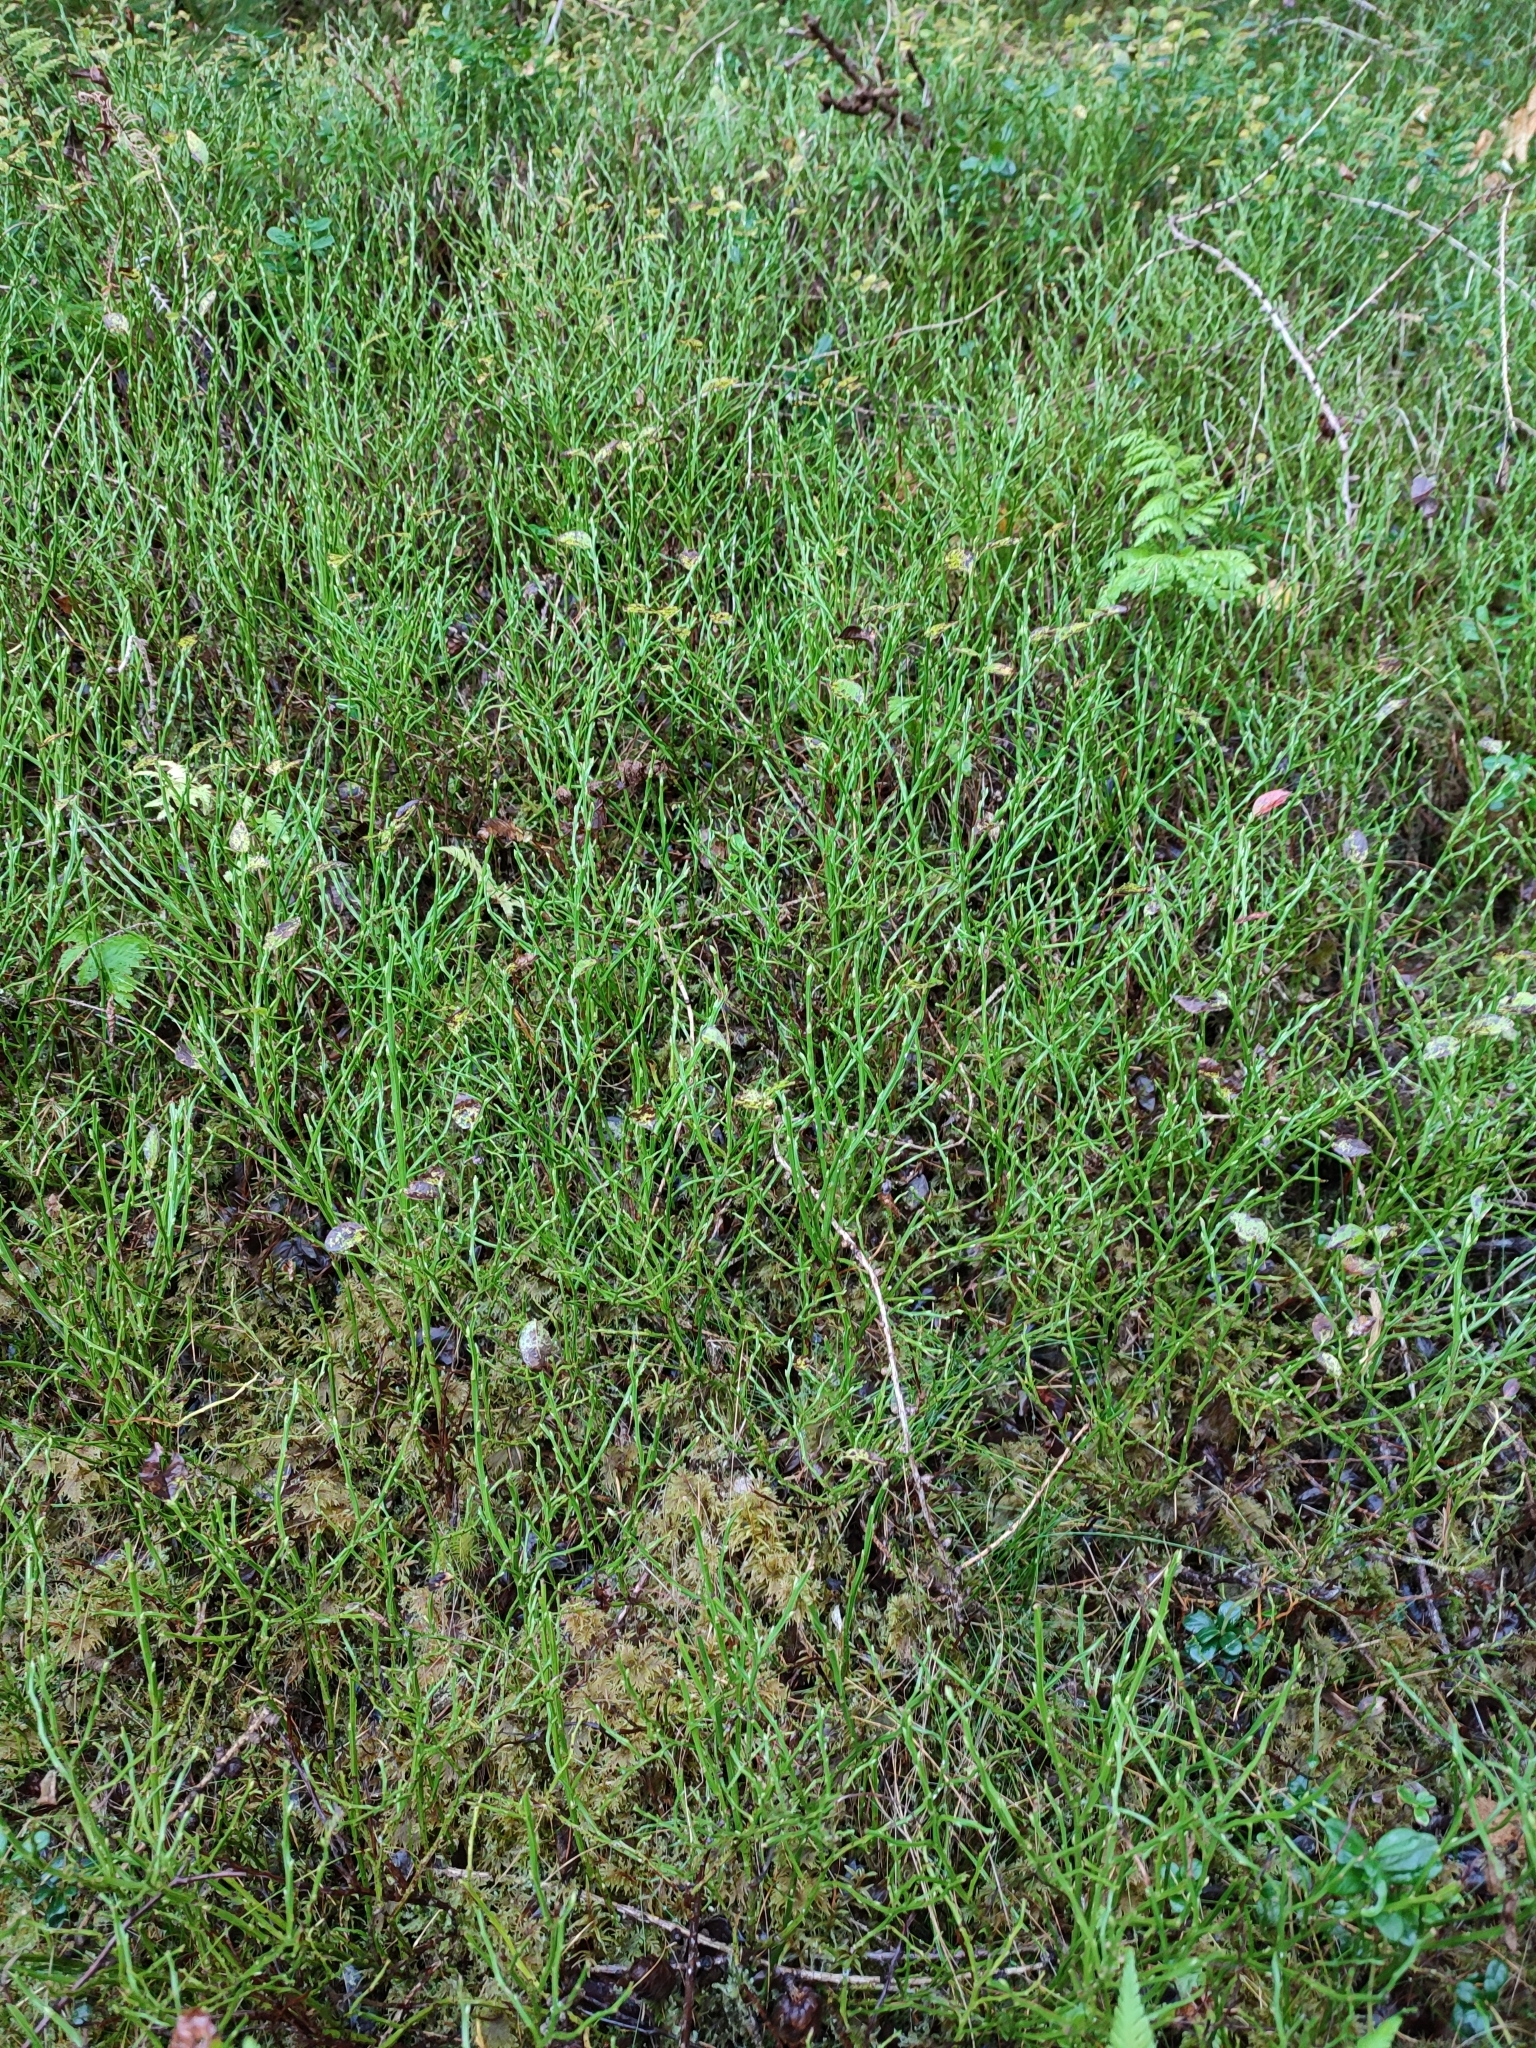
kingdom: Plantae
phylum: Tracheophyta
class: Magnoliopsida
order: Ericales
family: Ericaceae
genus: Vaccinium
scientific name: Vaccinium myrtillus
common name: Bilberry
